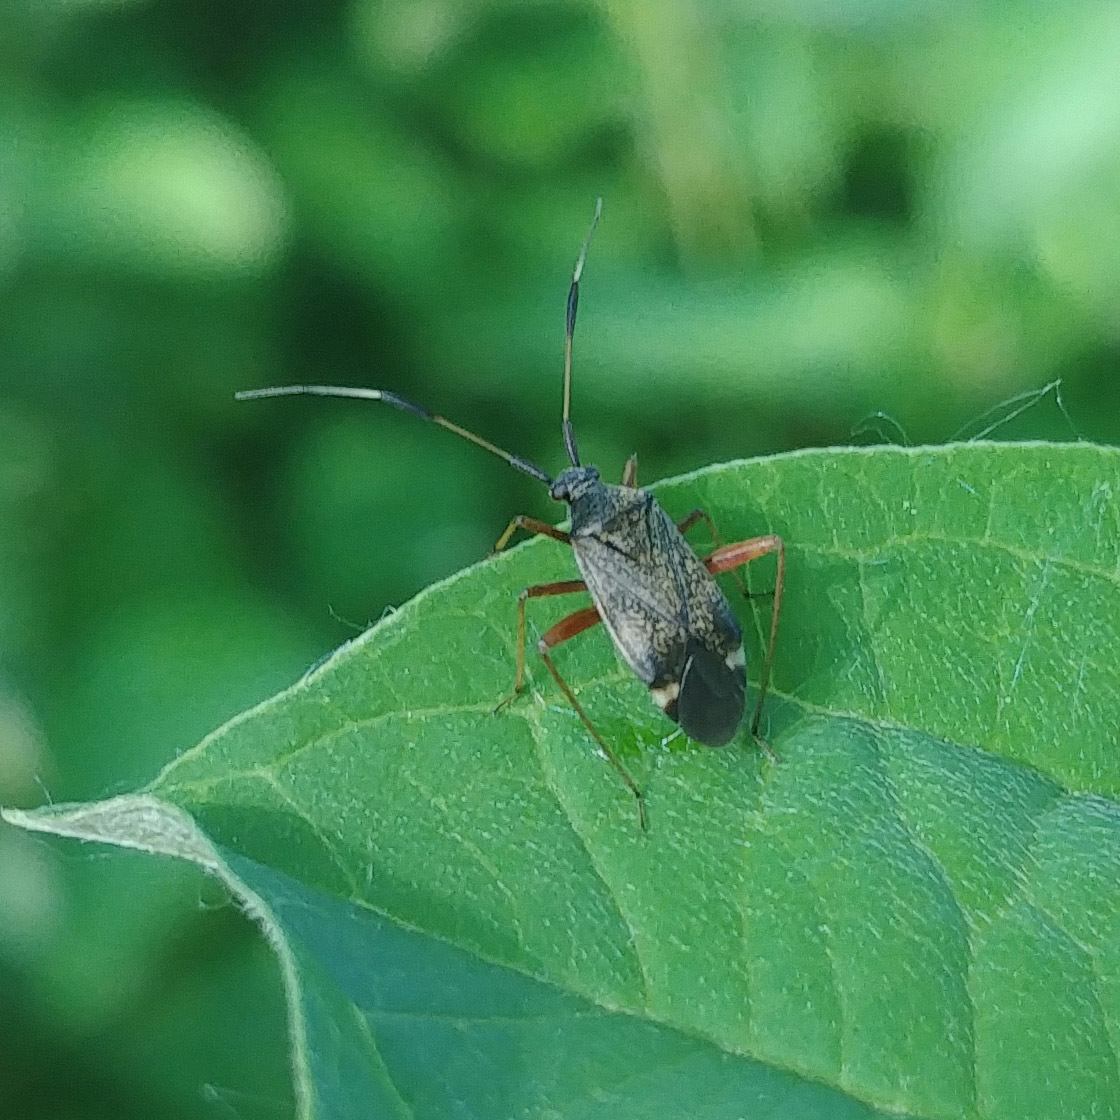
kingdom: Animalia
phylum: Arthropoda
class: Insecta
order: Hemiptera
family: Miridae
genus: Closterotomus
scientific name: Closterotomus biclavatus
